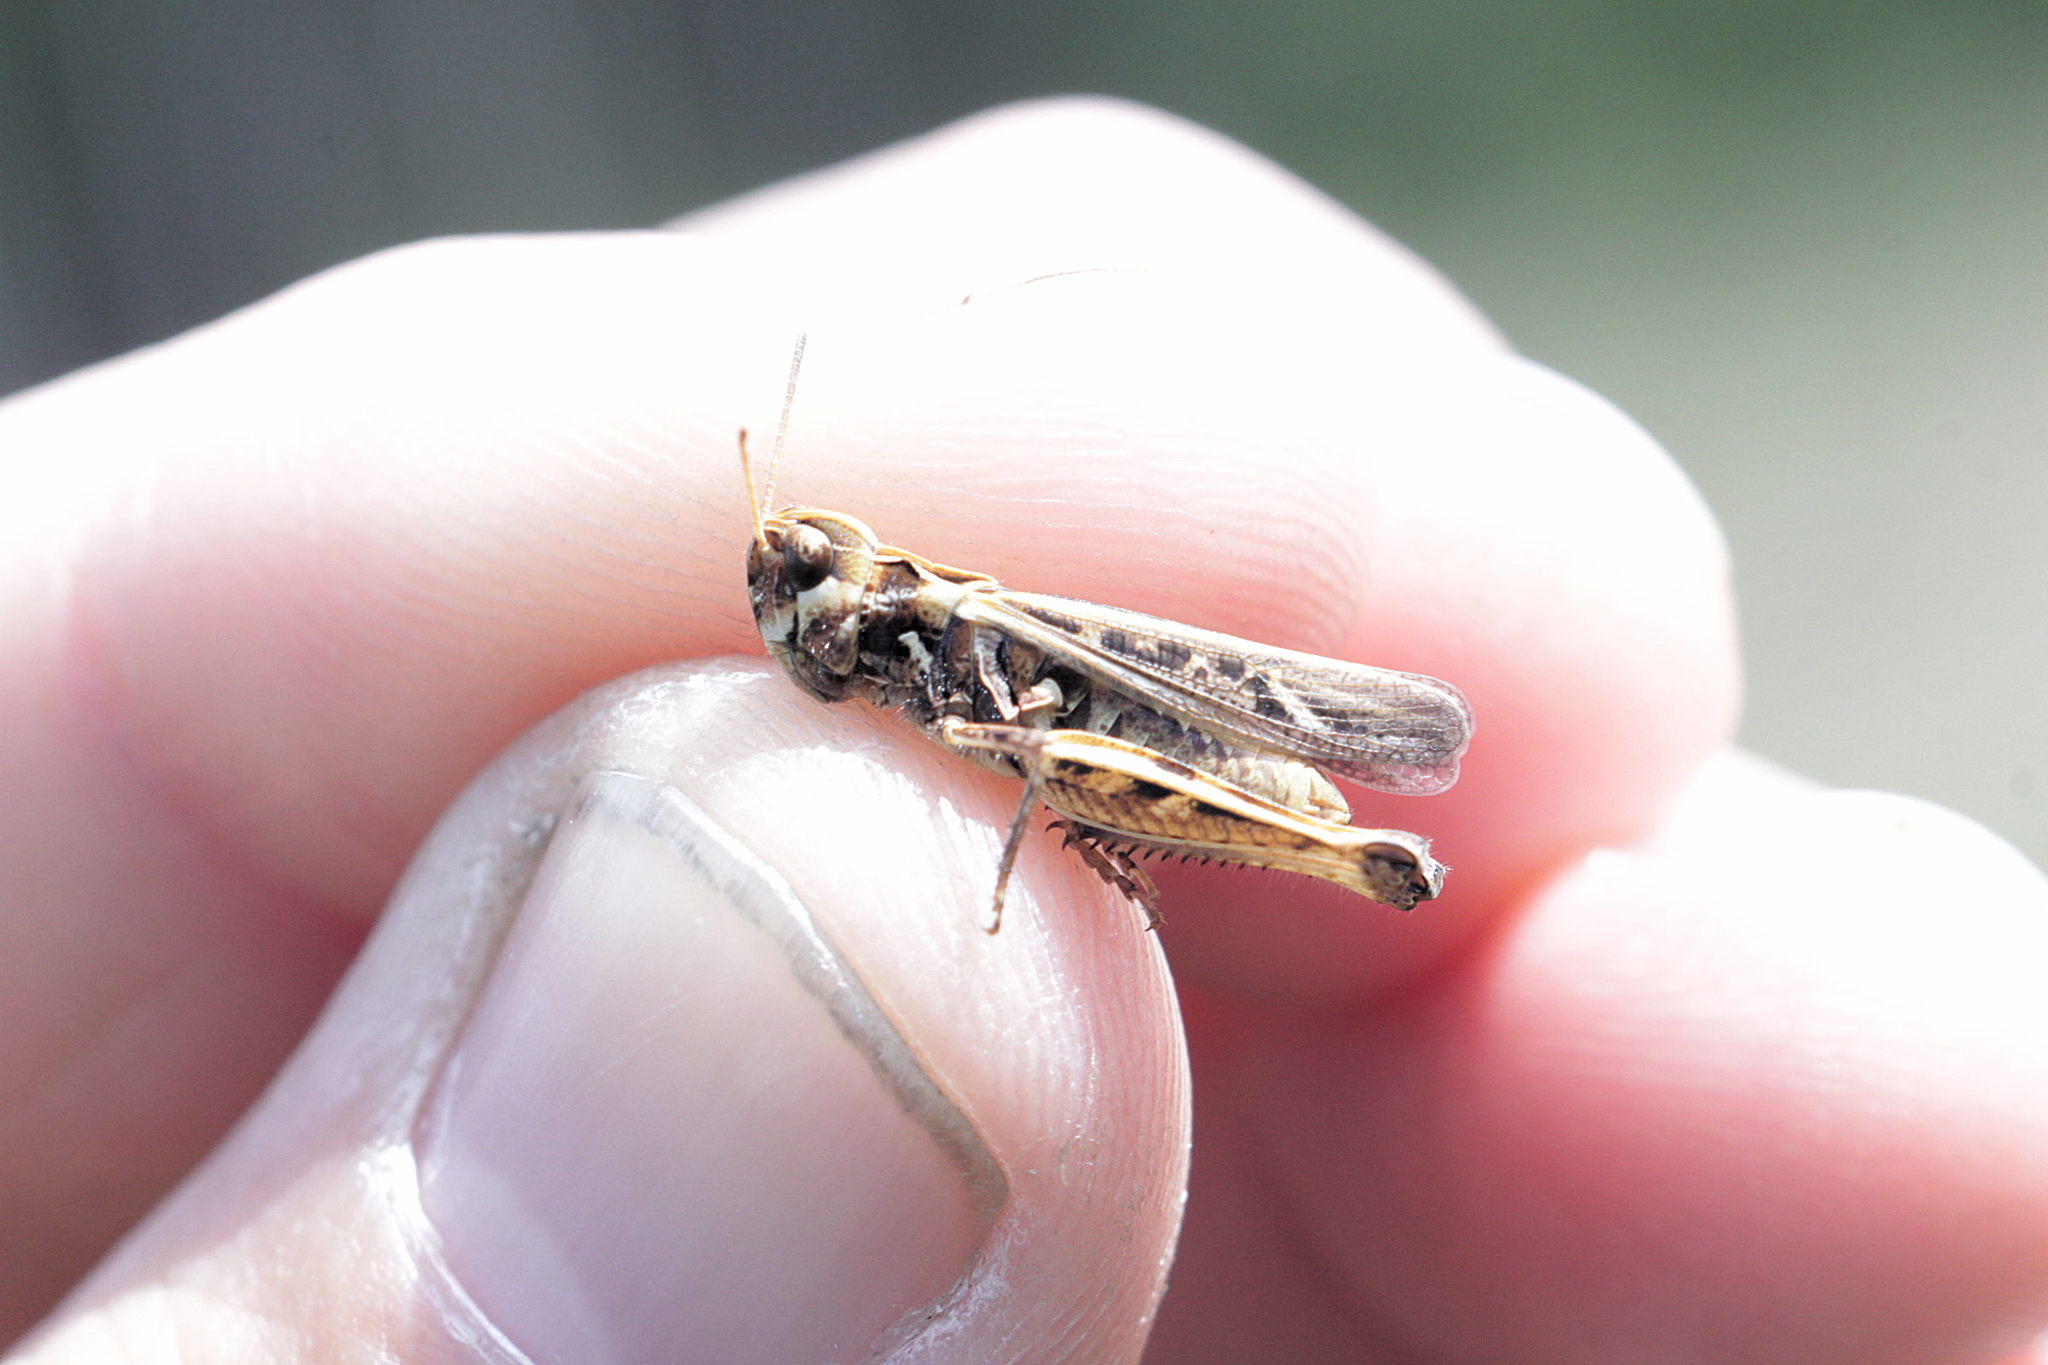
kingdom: Animalia
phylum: Arthropoda
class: Insecta
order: Orthoptera
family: Acrididae
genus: Myrmeleotettix
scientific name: Myrmeleotettix maculatus
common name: Mottled grasshopper
